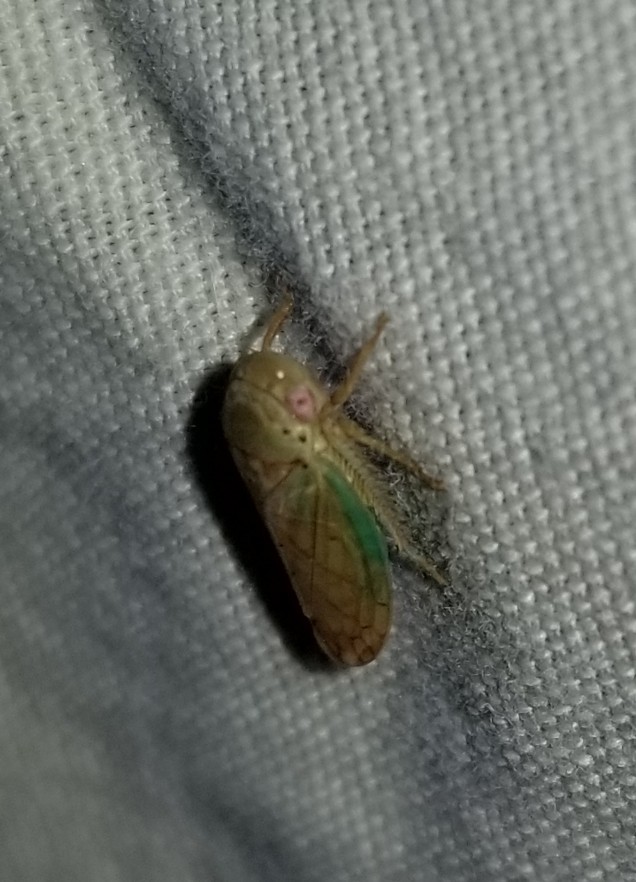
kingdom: Animalia
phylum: Arthropoda
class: Insecta
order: Hemiptera
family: Cicadellidae
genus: Polana
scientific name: Polana quadrinotata
